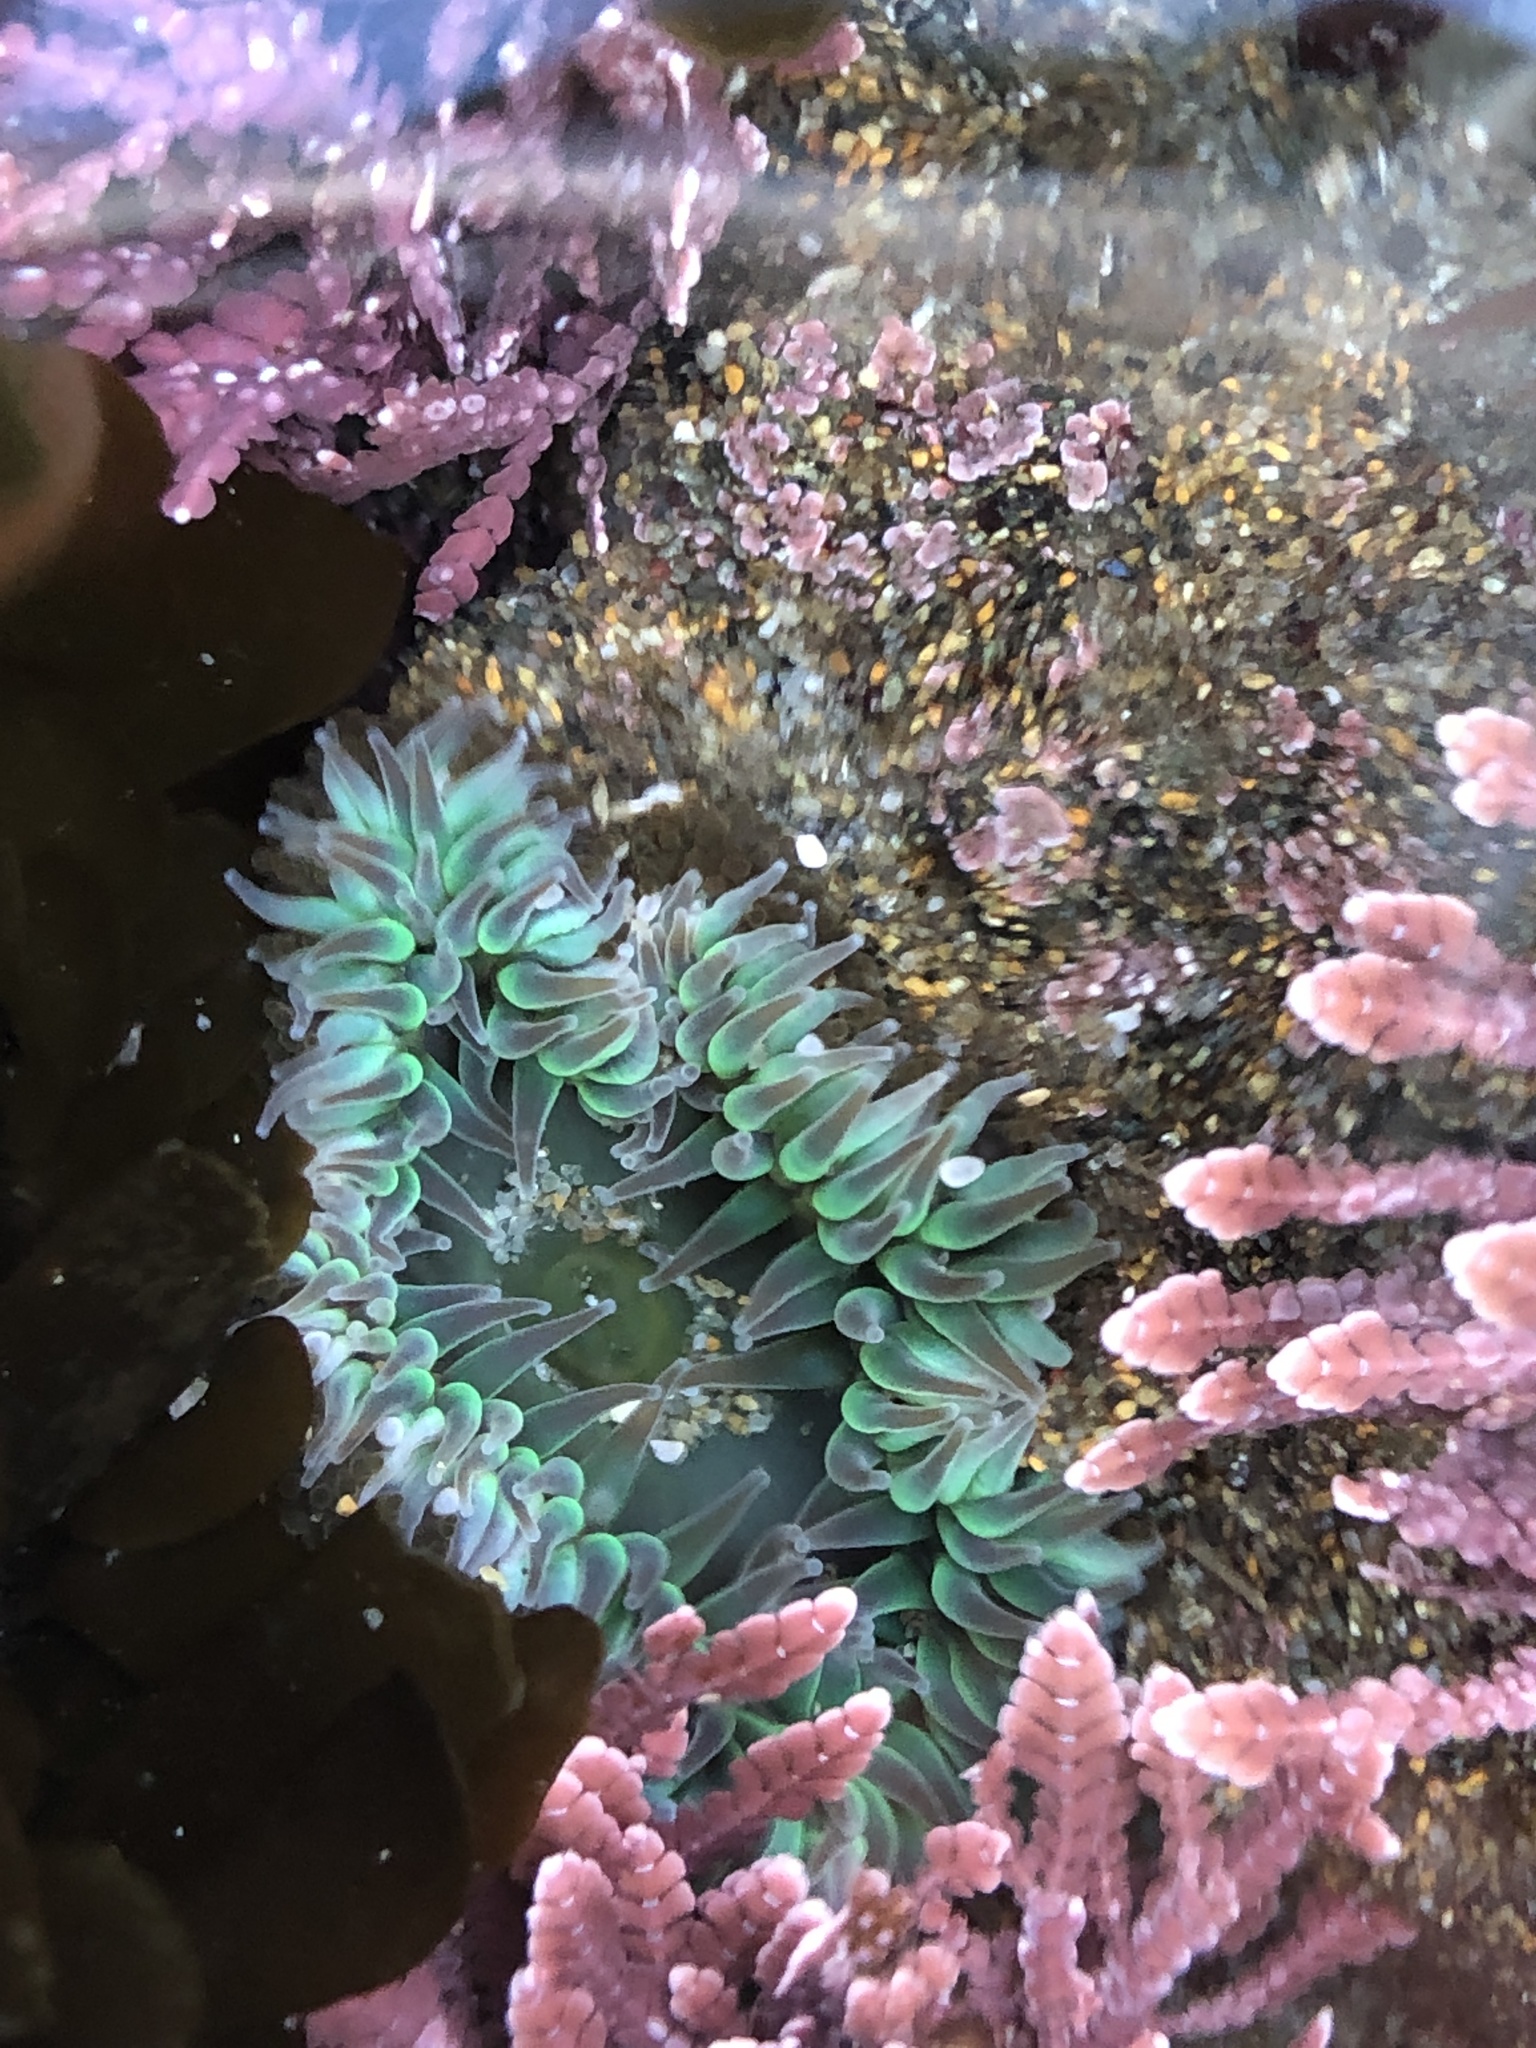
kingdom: Animalia
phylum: Cnidaria
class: Anthozoa
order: Actiniaria
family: Actiniidae
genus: Anthopleura
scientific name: Anthopleura xanthogrammica
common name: Giant green anemone
